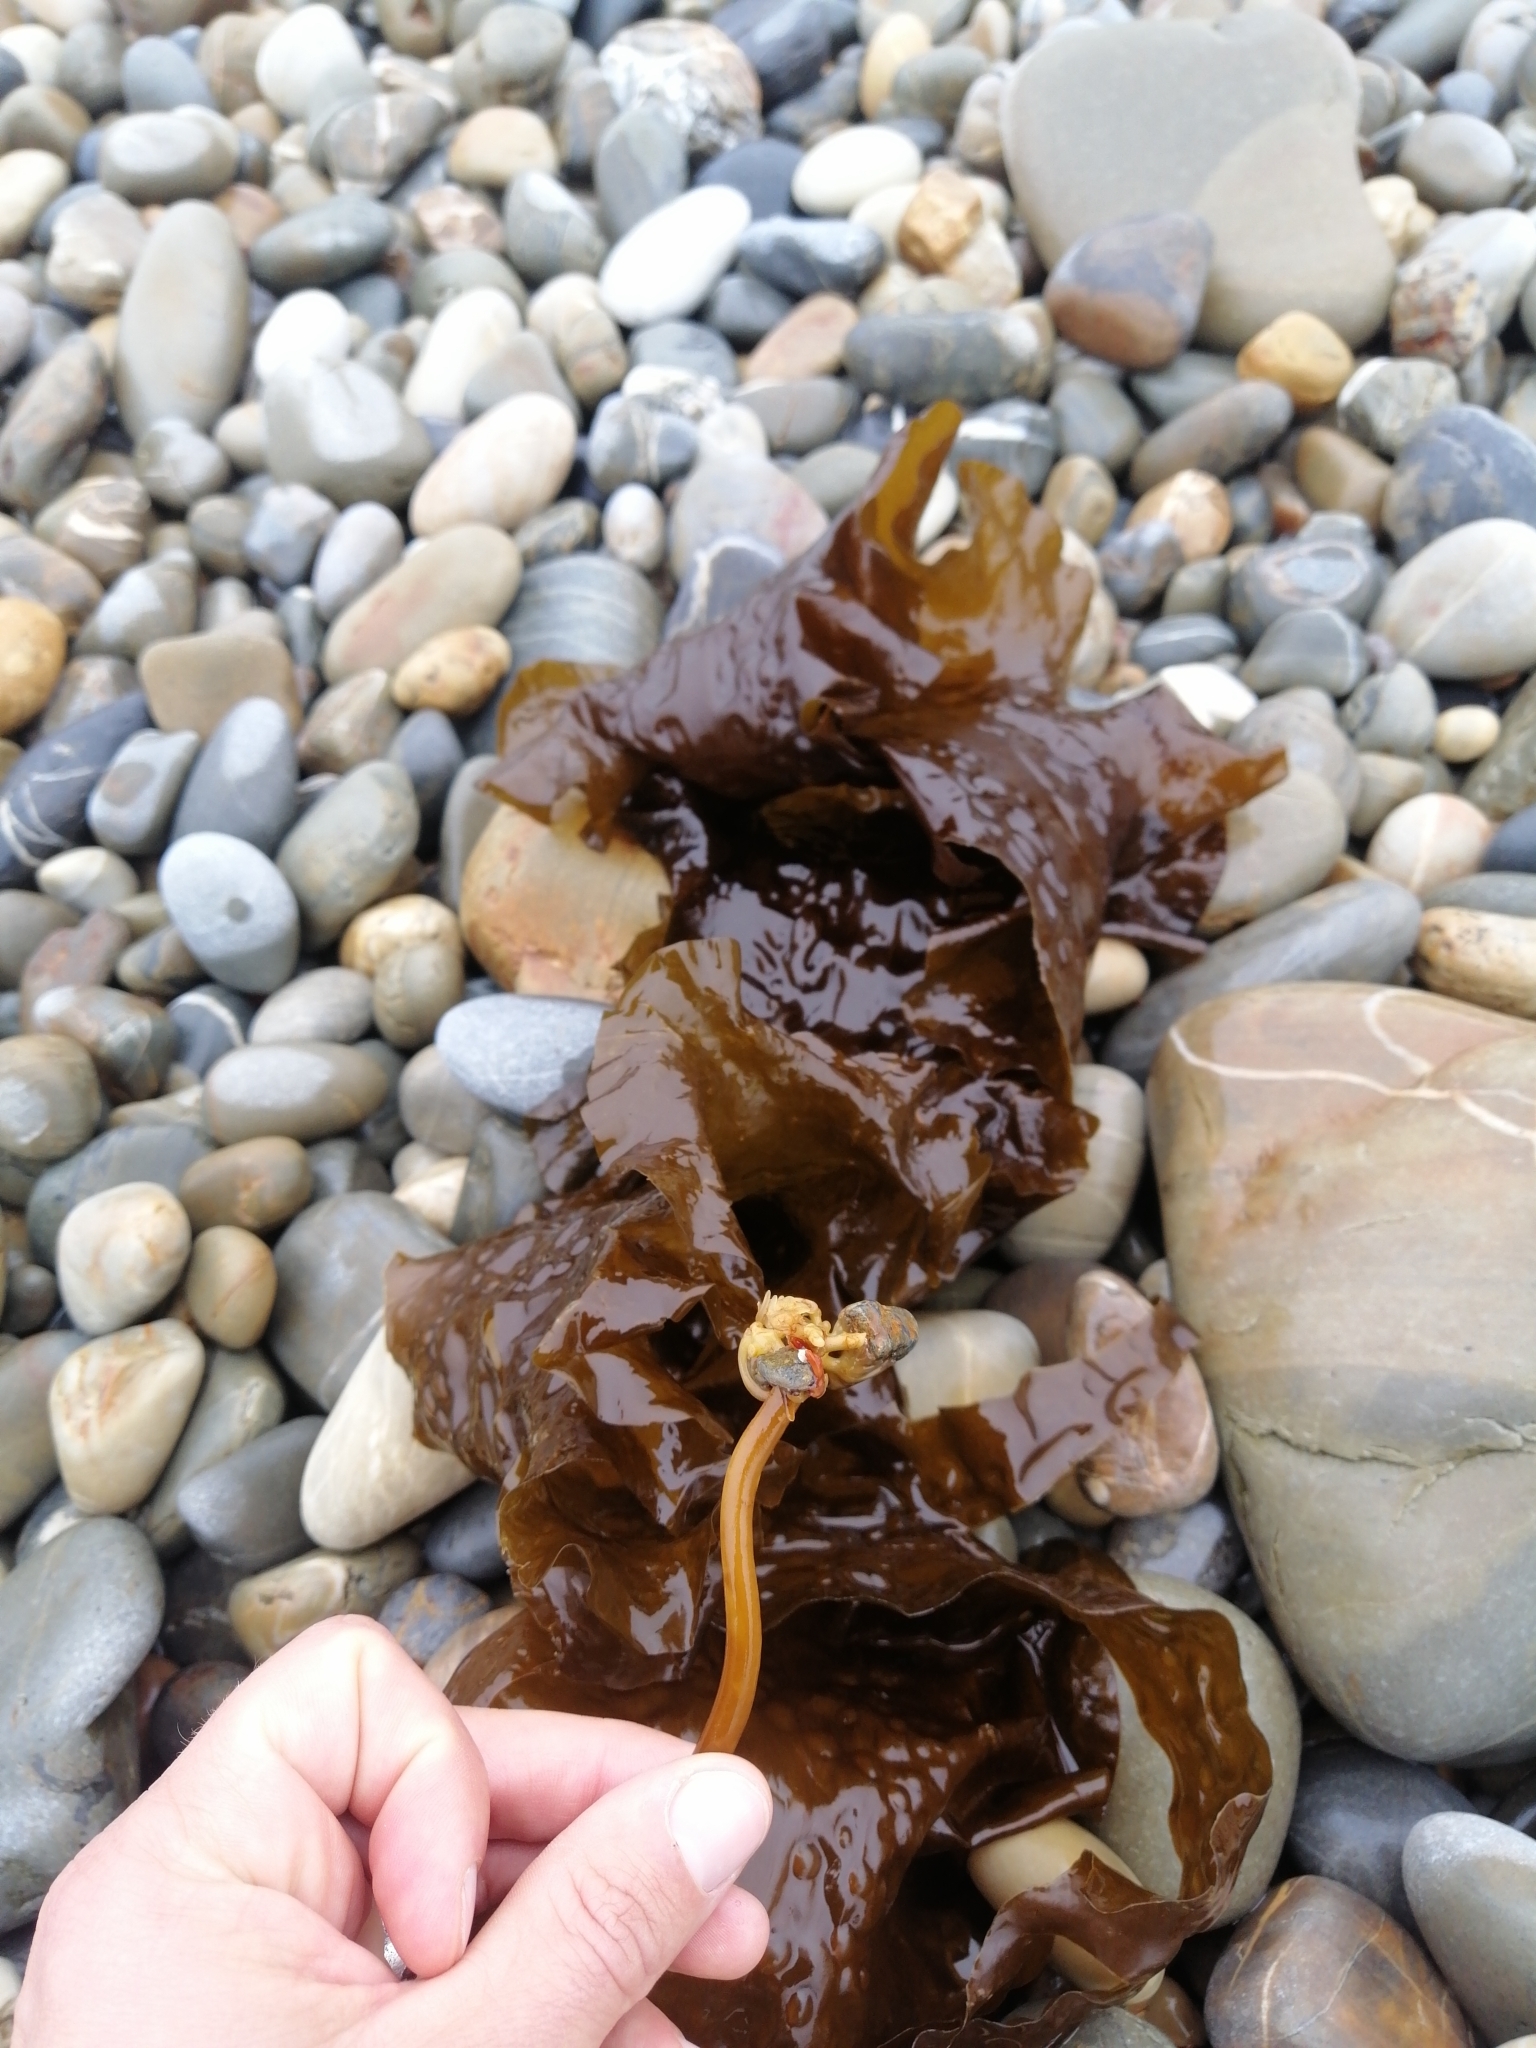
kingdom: Chromista
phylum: Ochrophyta
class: Phaeophyceae
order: Laminariales
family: Laminariaceae
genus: Saccharina
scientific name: Saccharina latissima
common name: Poor man's weather glass
